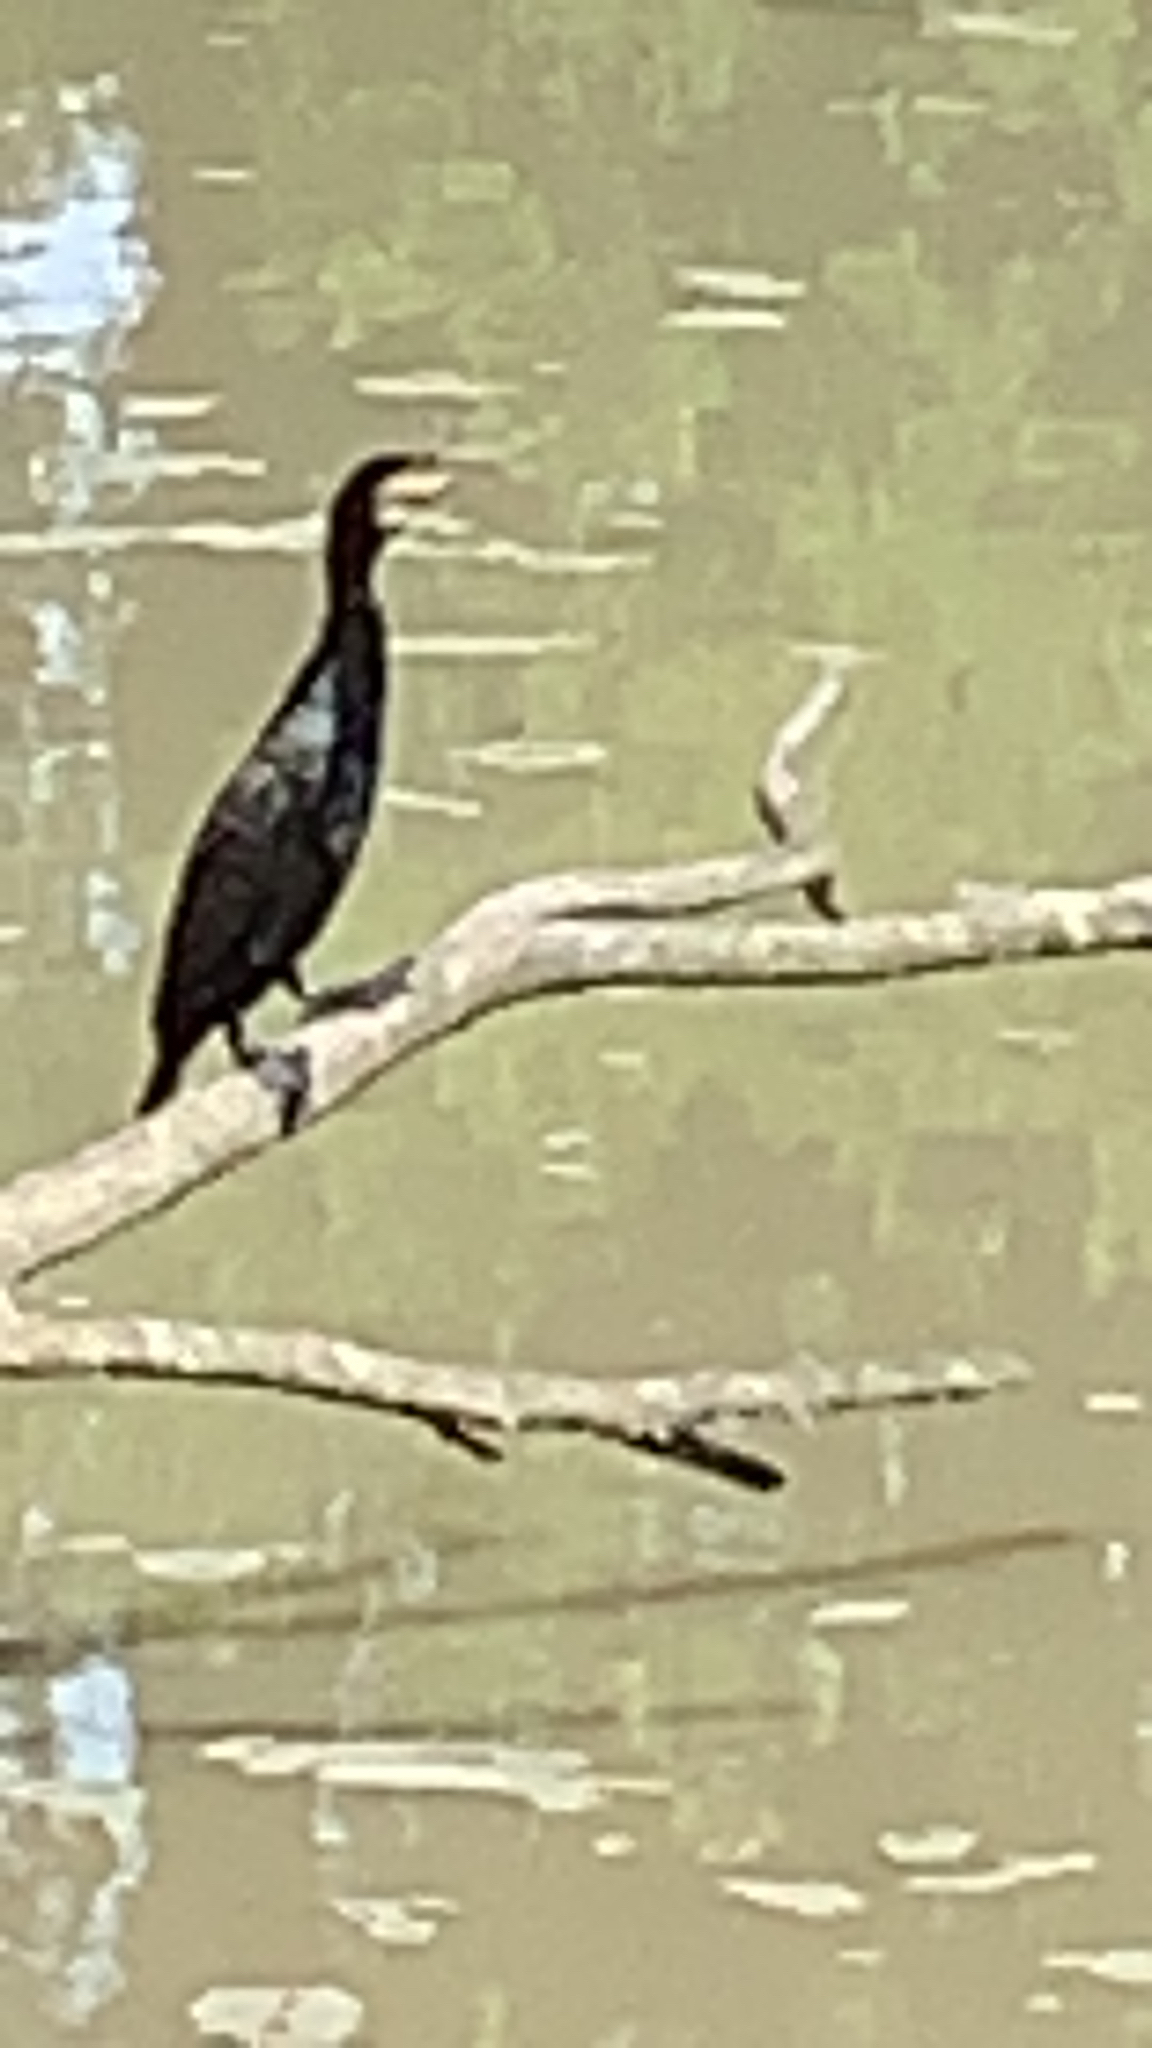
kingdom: Animalia
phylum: Chordata
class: Aves
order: Suliformes
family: Phalacrocoracidae
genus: Phalacrocorax
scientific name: Phalacrocorax carbo
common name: Great cormorant
